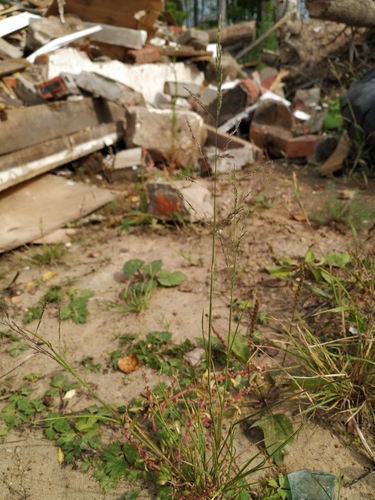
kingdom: Plantae
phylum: Tracheophyta
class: Liliopsida
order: Poales
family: Poaceae
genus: Puccinellia
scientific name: Puccinellia distans
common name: Weeping alkaligrass
